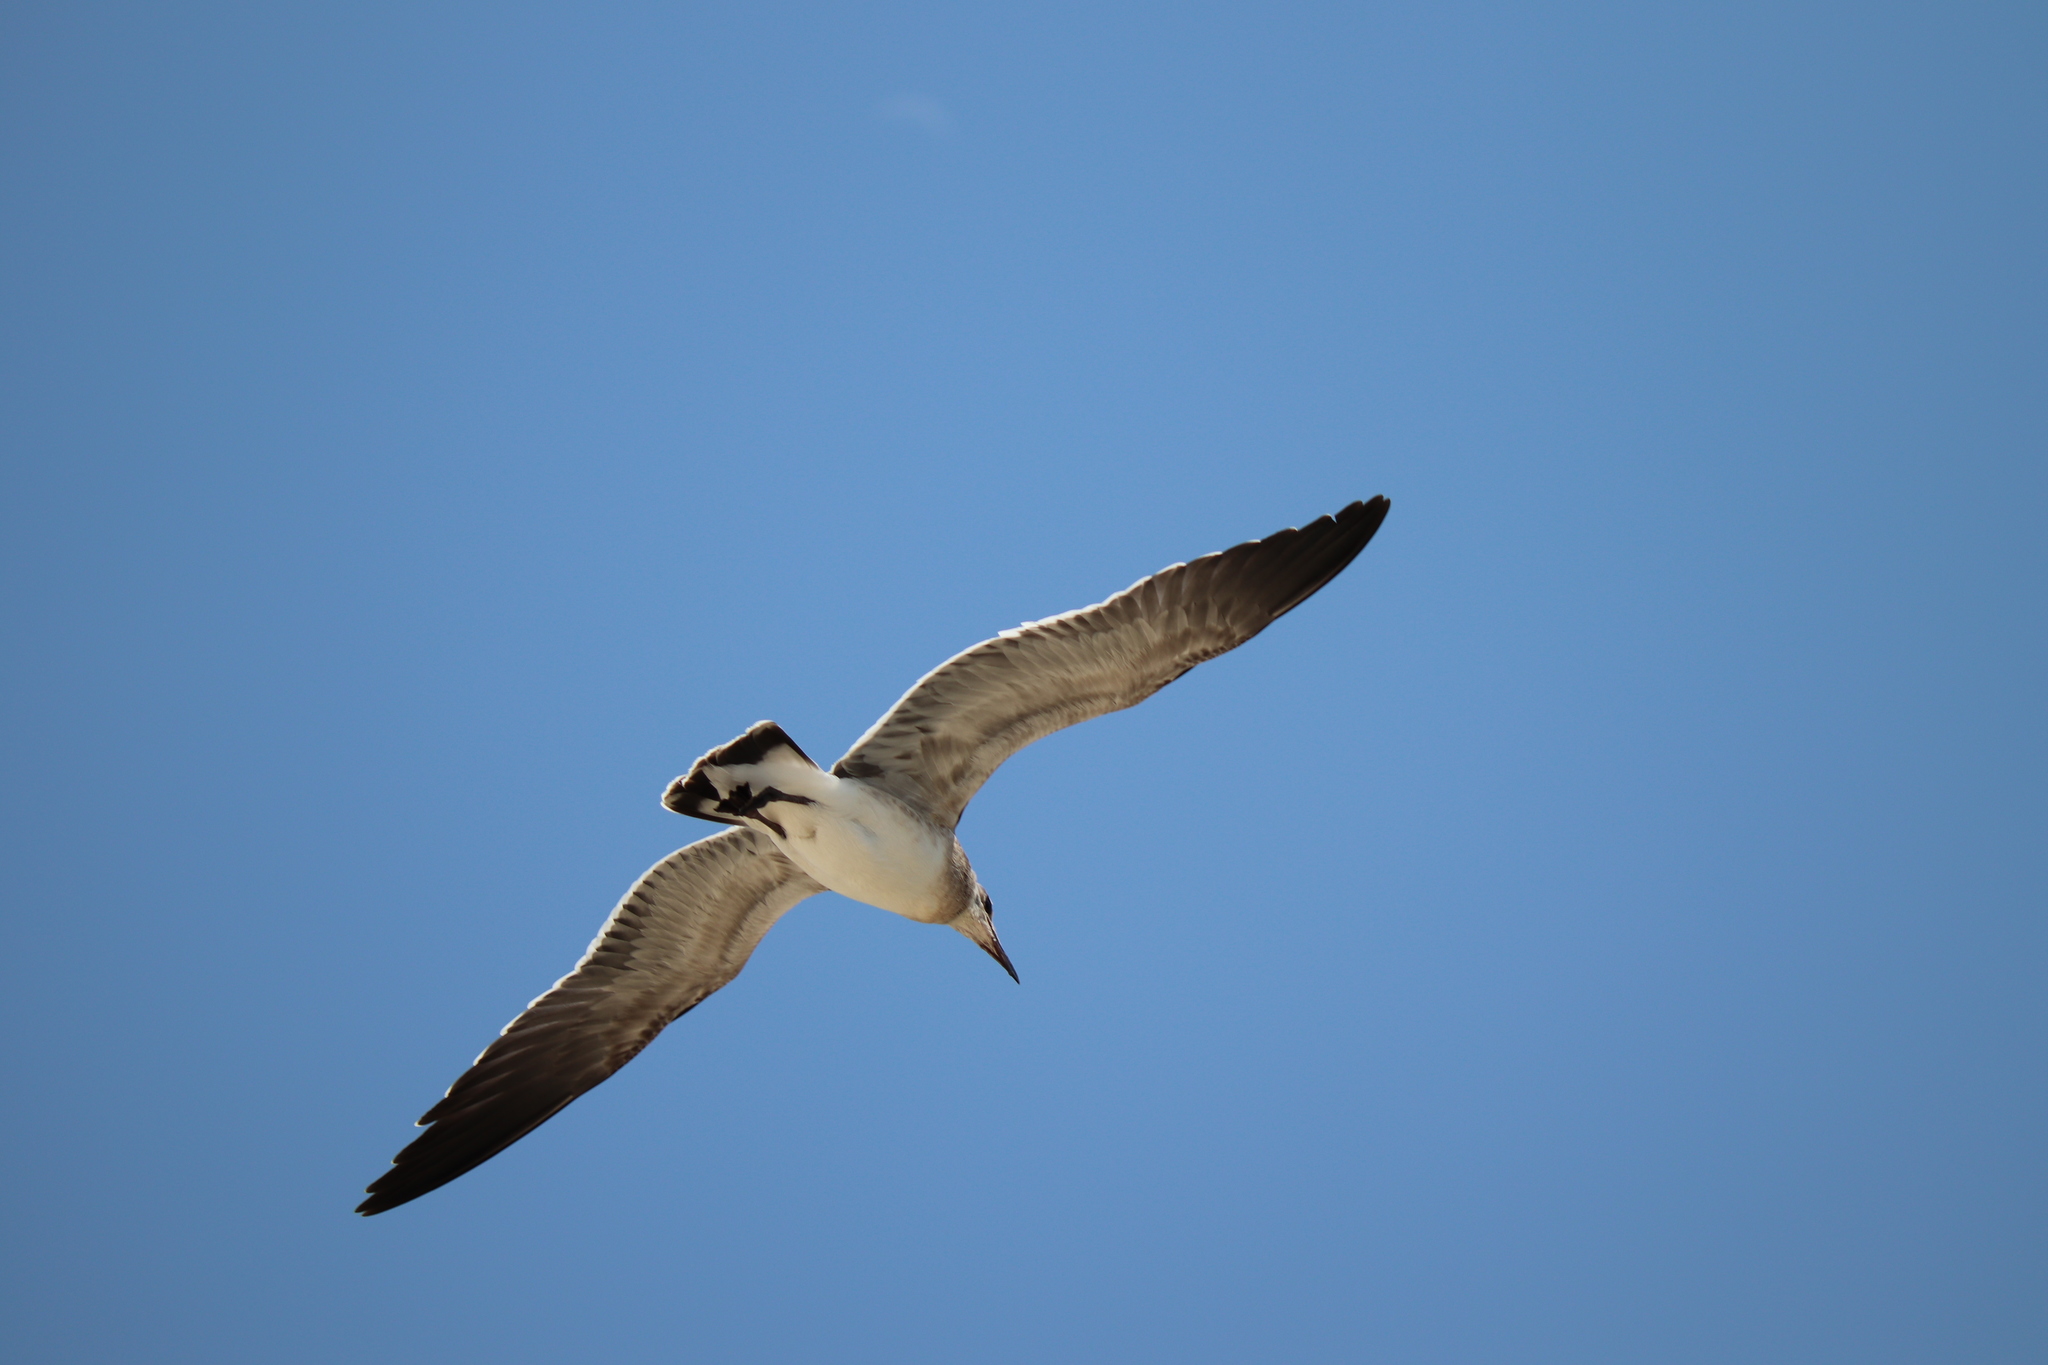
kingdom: Animalia
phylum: Chordata
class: Aves
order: Charadriiformes
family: Laridae
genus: Leucophaeus
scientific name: Leucophaeus atricilla
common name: Laughing gull
